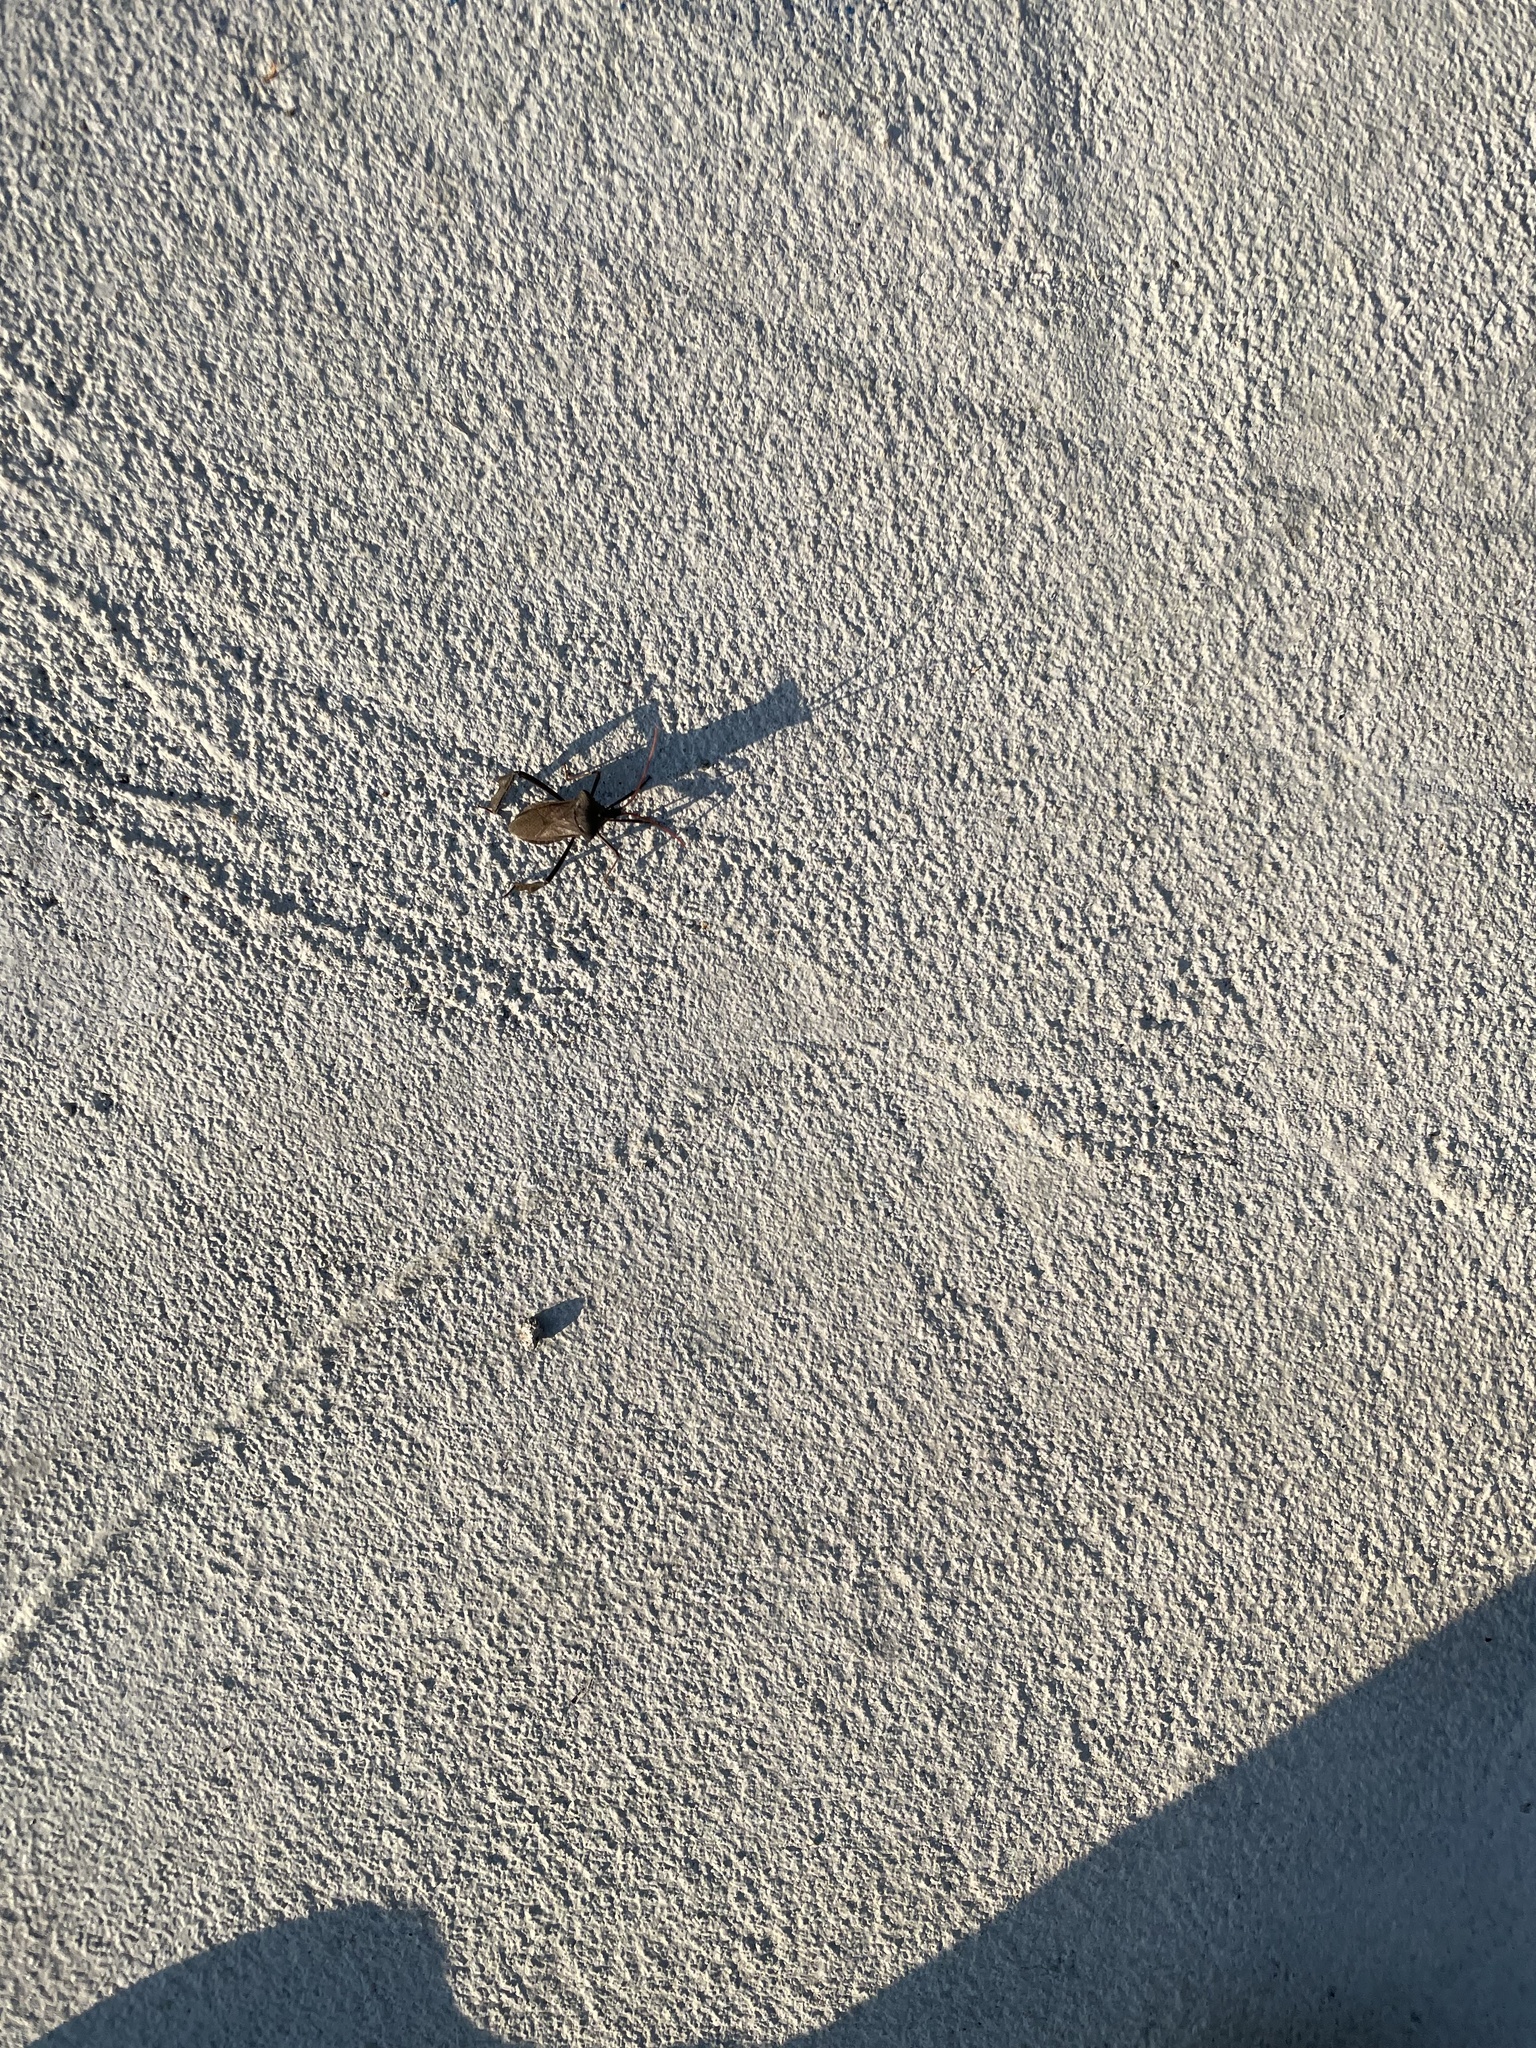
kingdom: Animalia
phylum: Arthropoda
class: Insecta
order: Hemiptera
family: Coreidae
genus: Acanthocephala
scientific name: Acanthocephala declivis
